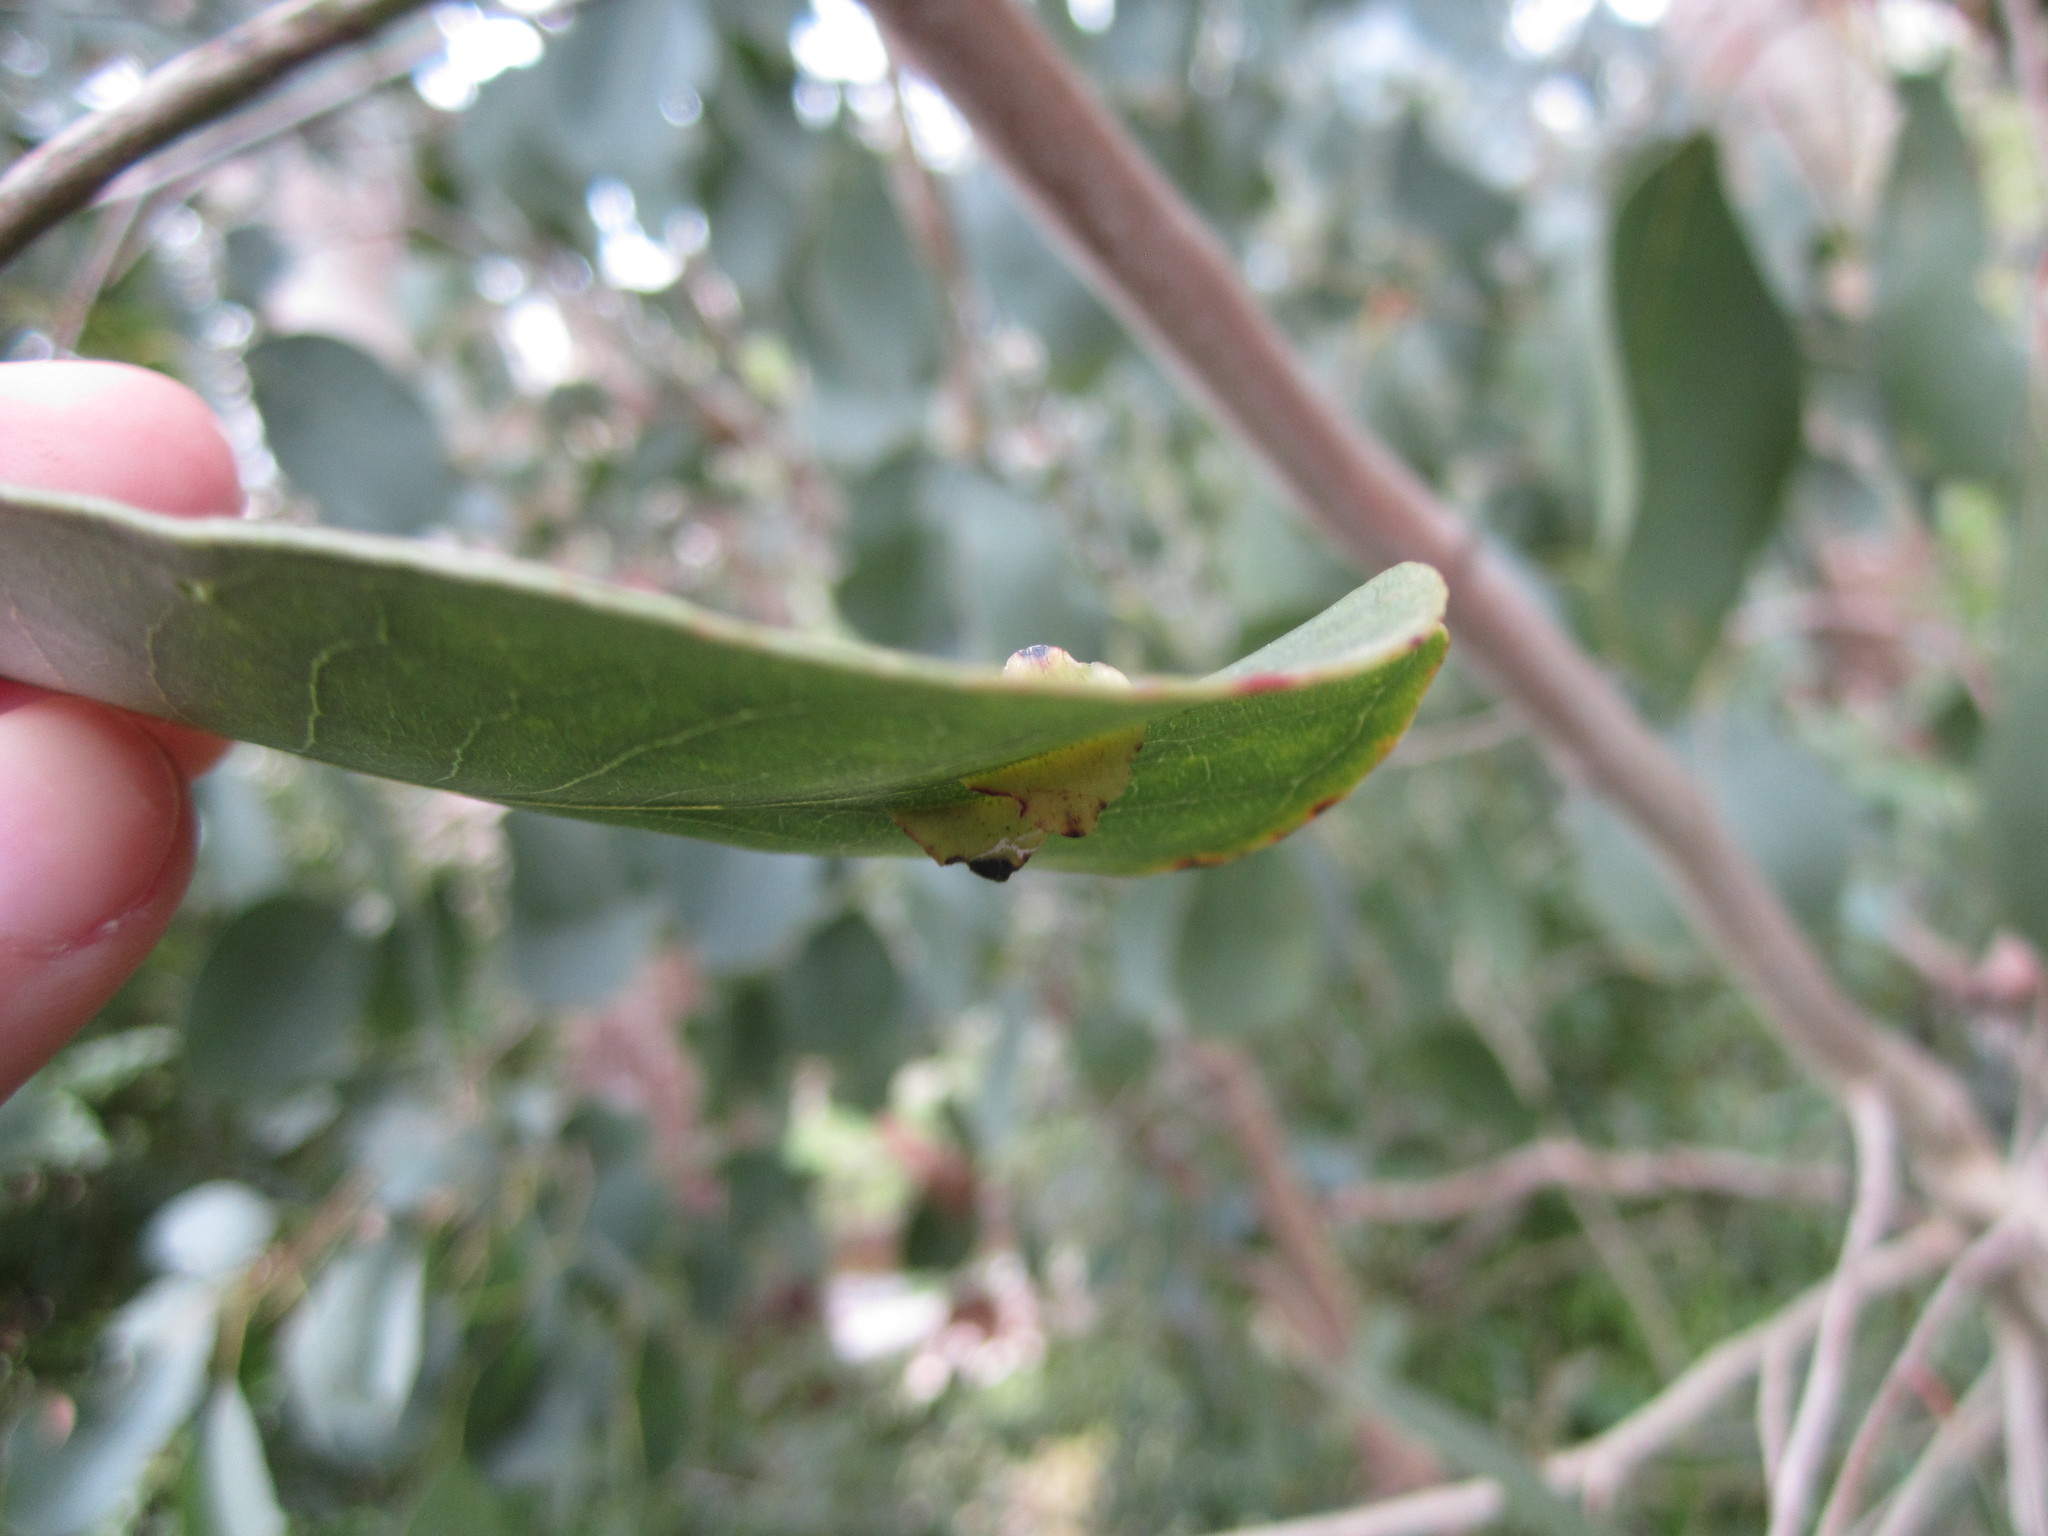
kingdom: Animalia
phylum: Arthropoda
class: Insecta
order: Hymenoptera
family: Pteromalidae
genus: Nambouria
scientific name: Nambouria xanthops
